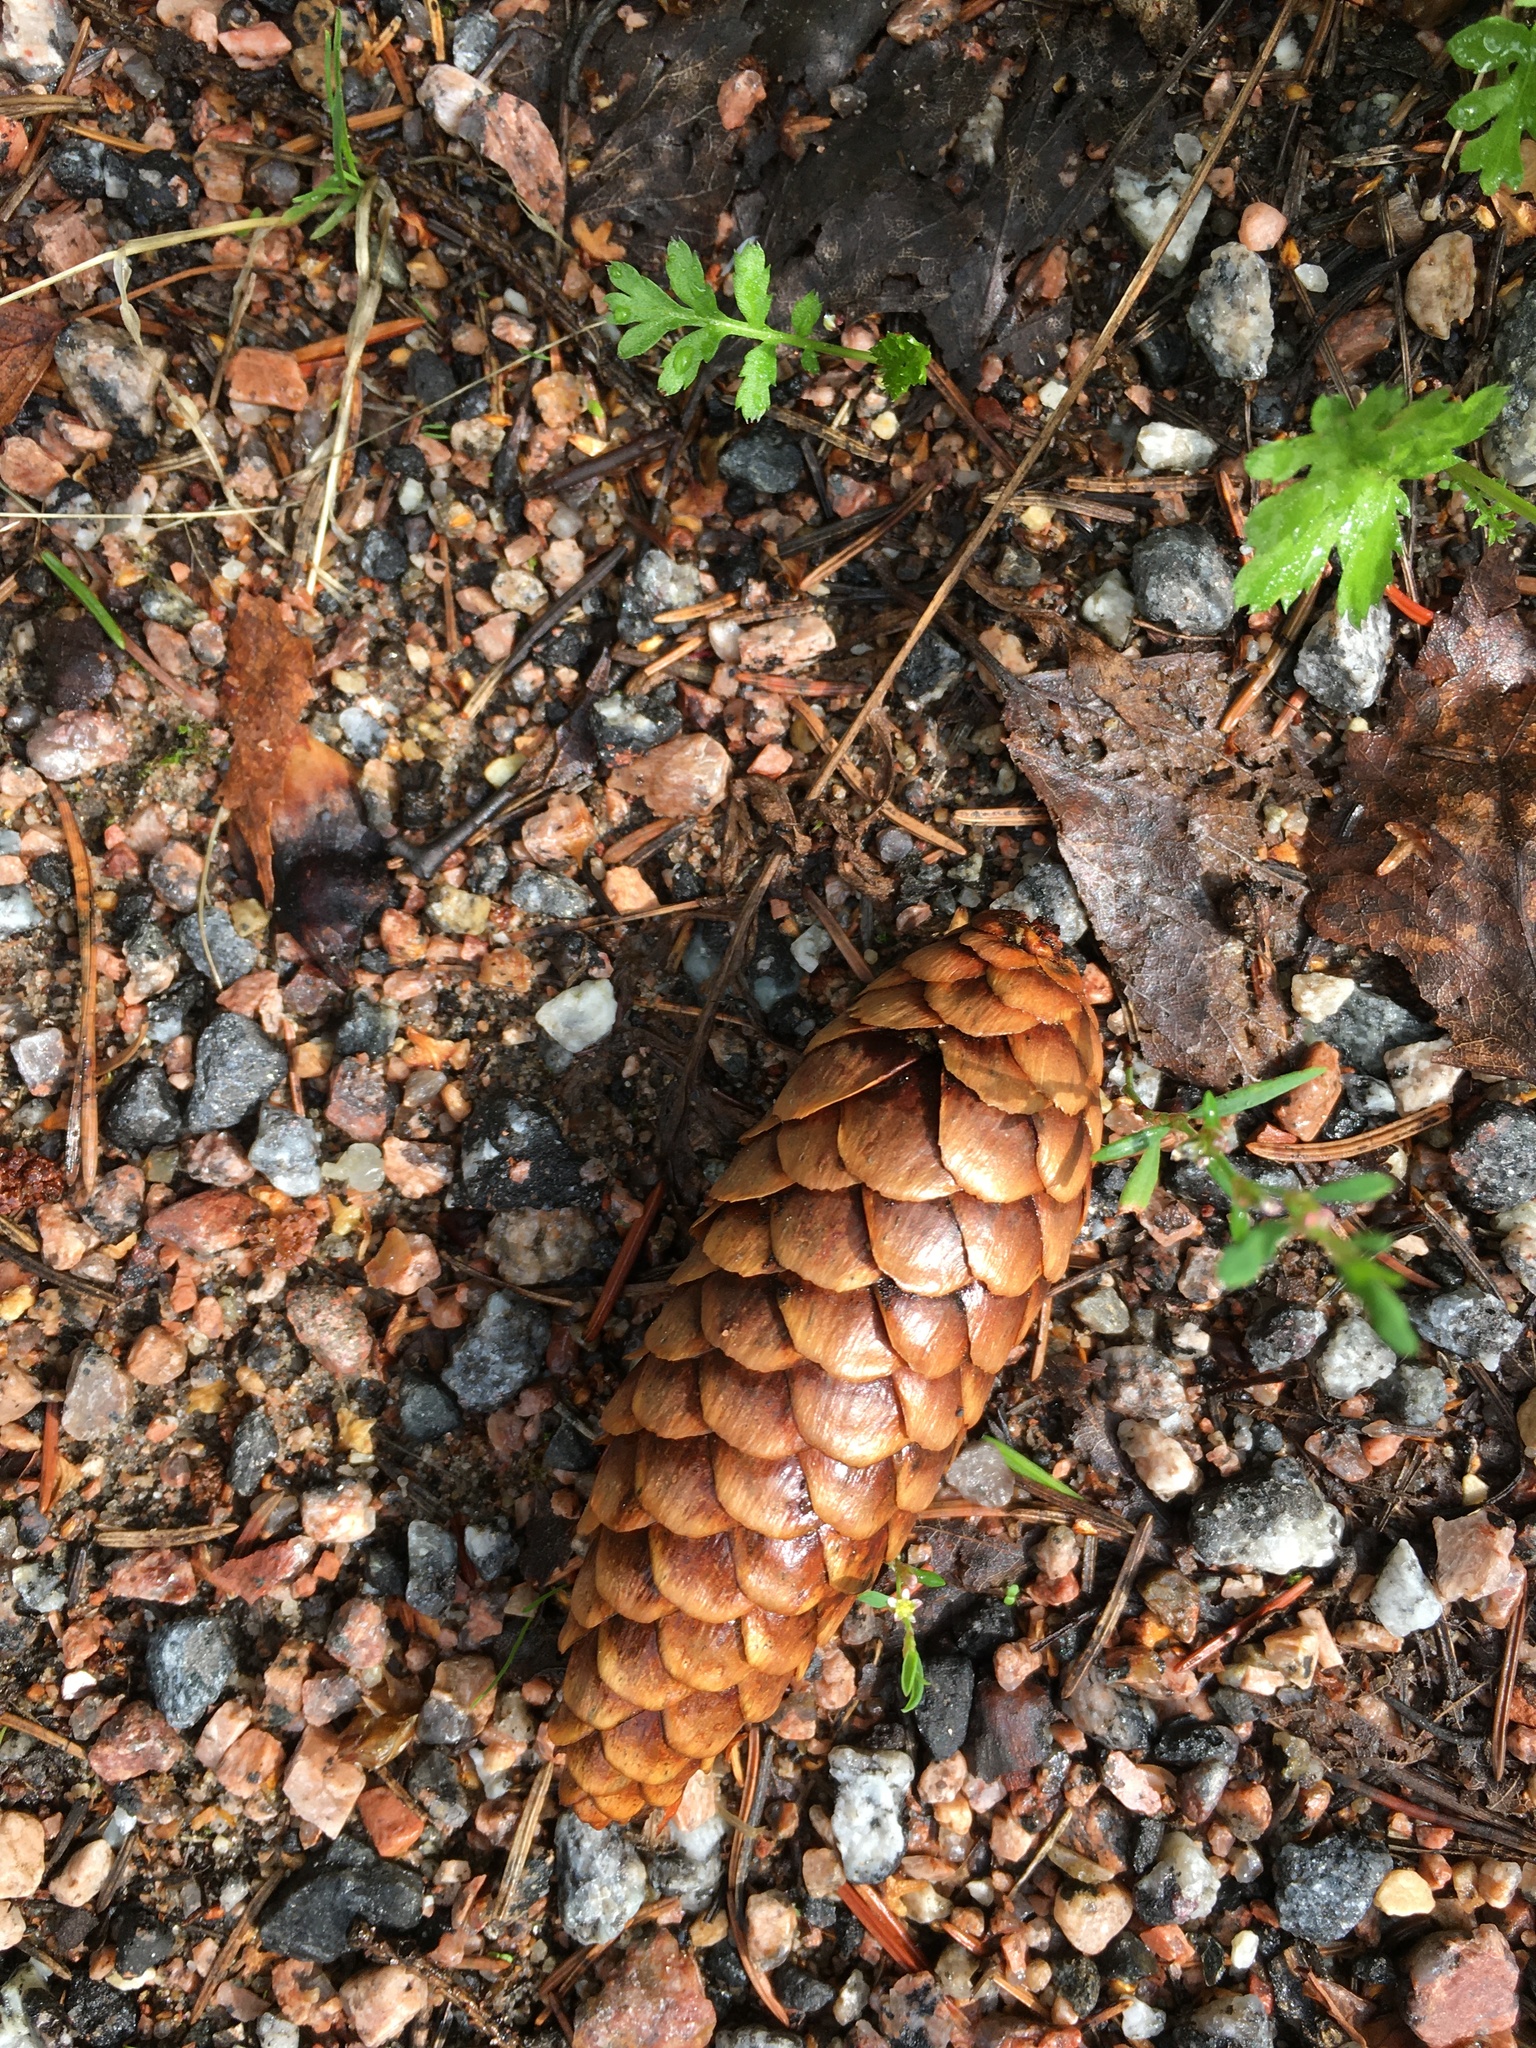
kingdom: Plantae
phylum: Tracheophyta
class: Pinopsida
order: Pinales
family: Pinaceae
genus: Picea
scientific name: Picea fennica
